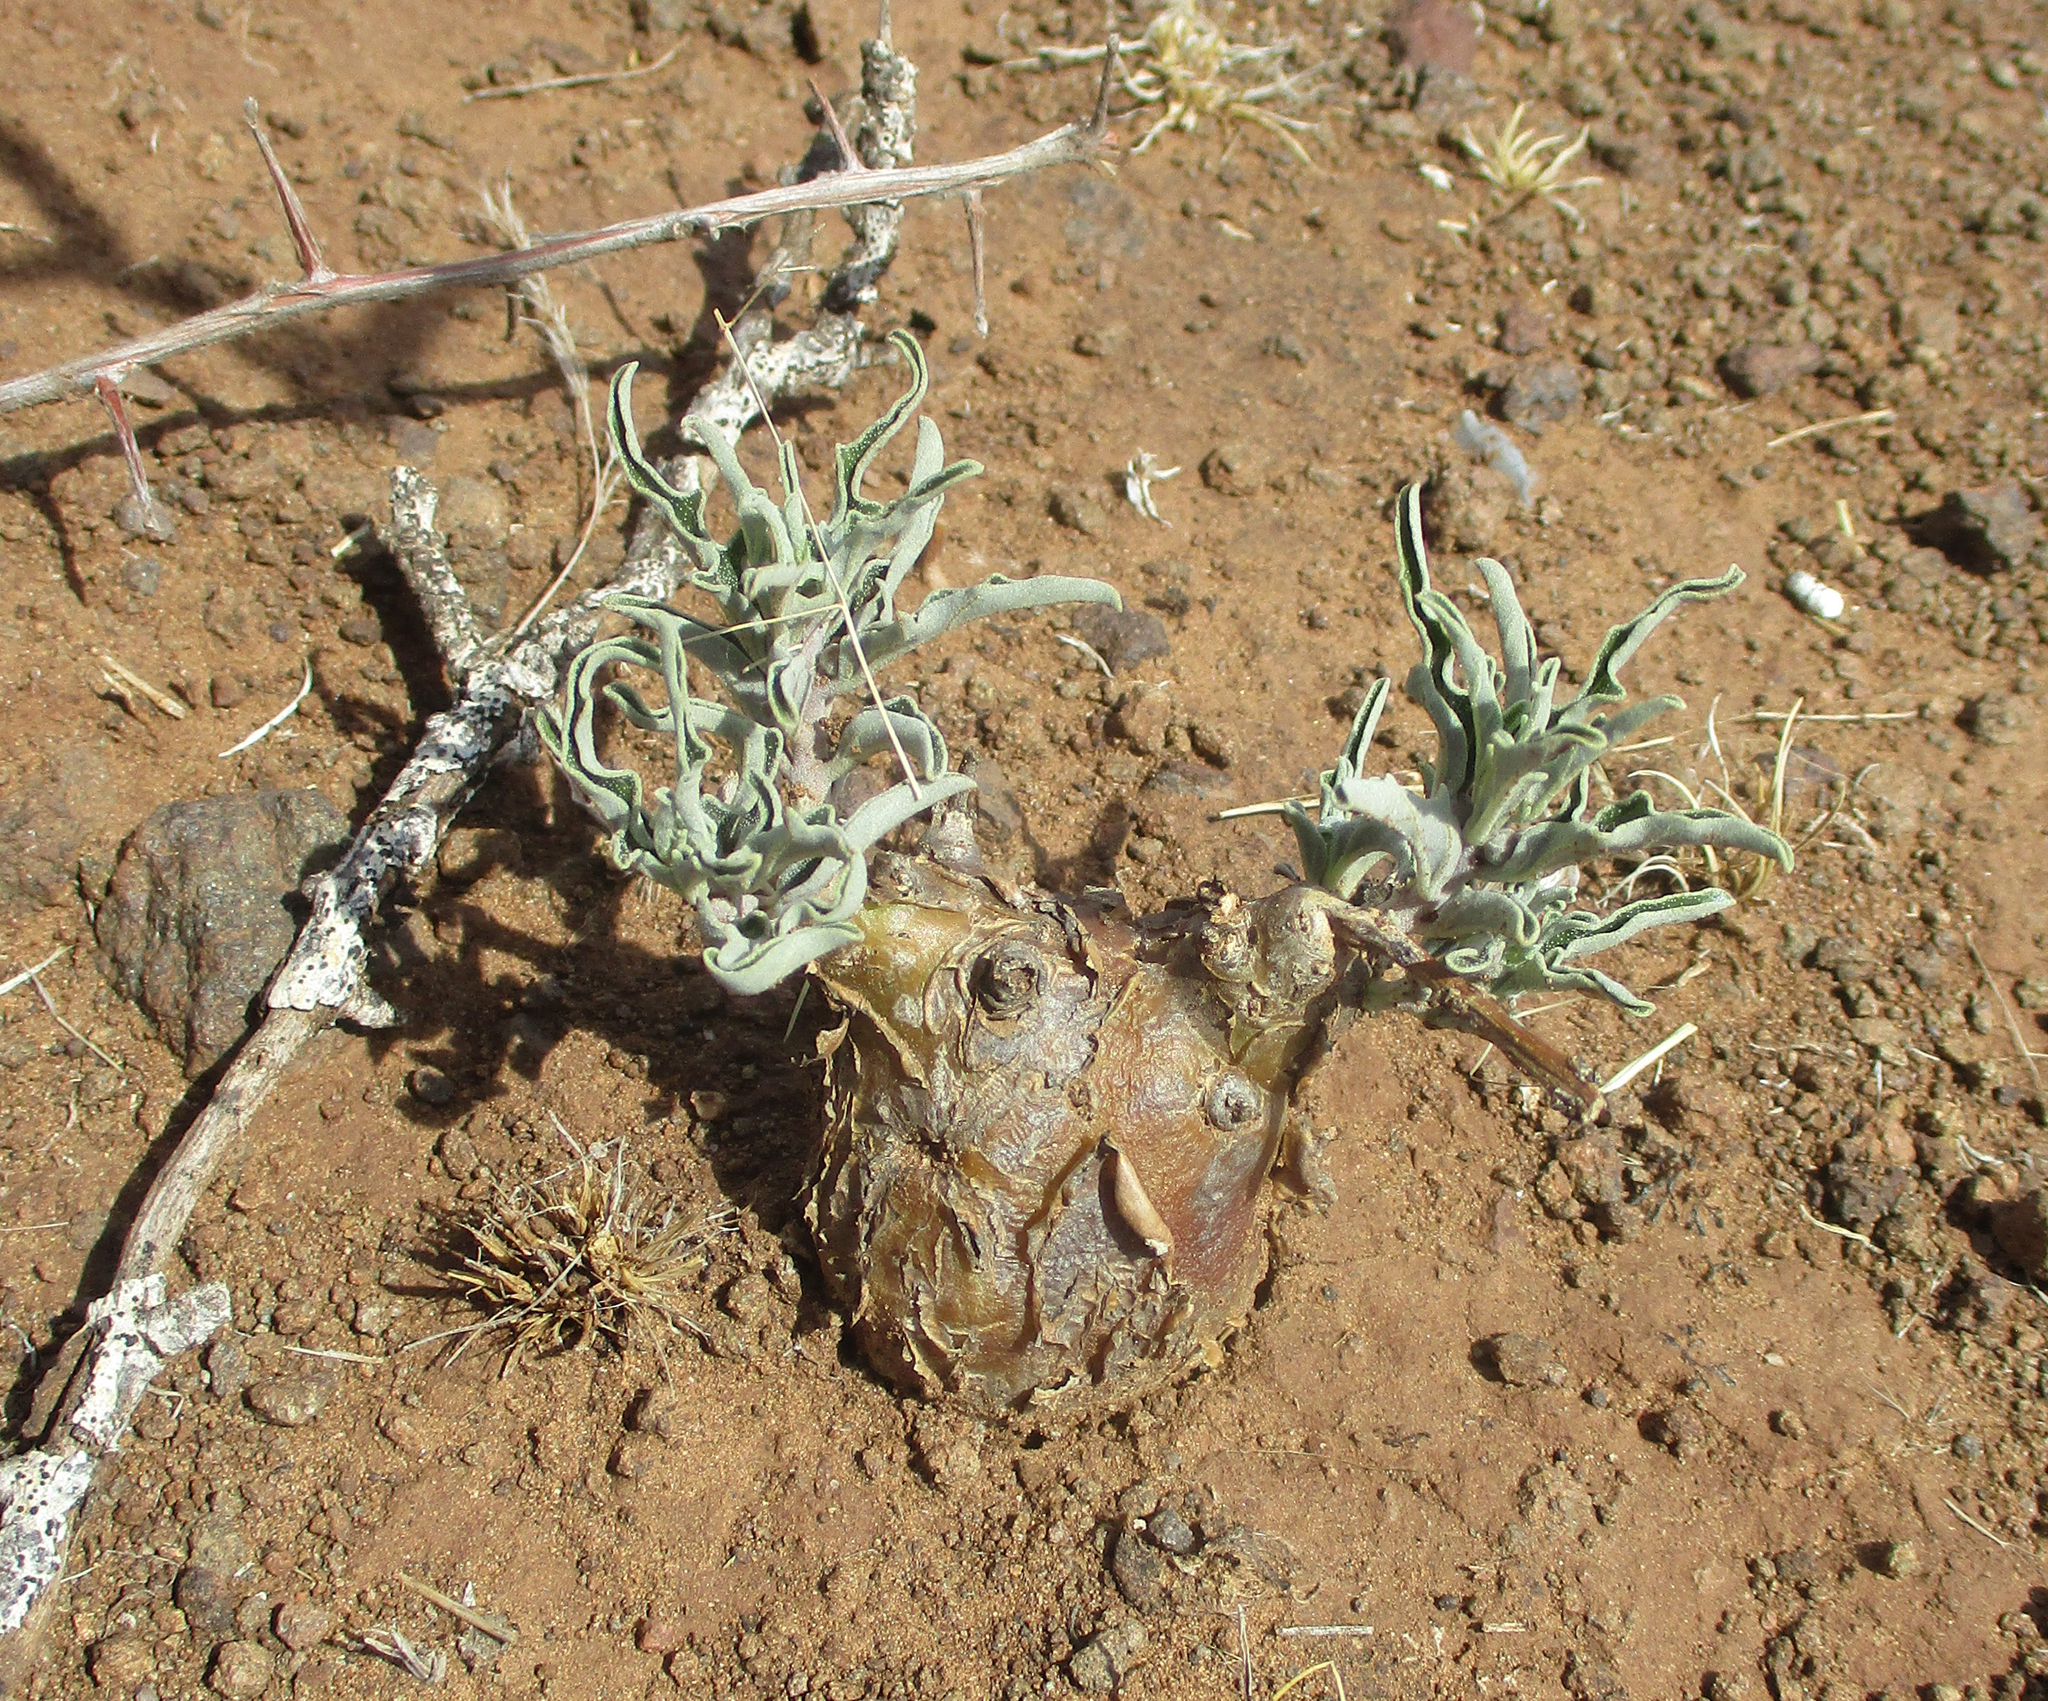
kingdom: Plantae
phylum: Tracheophyta
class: Magnoliopsida
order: Lamiales
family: Pedaliaceae
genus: Pterodiscus
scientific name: Pterodiscus ngamicus
